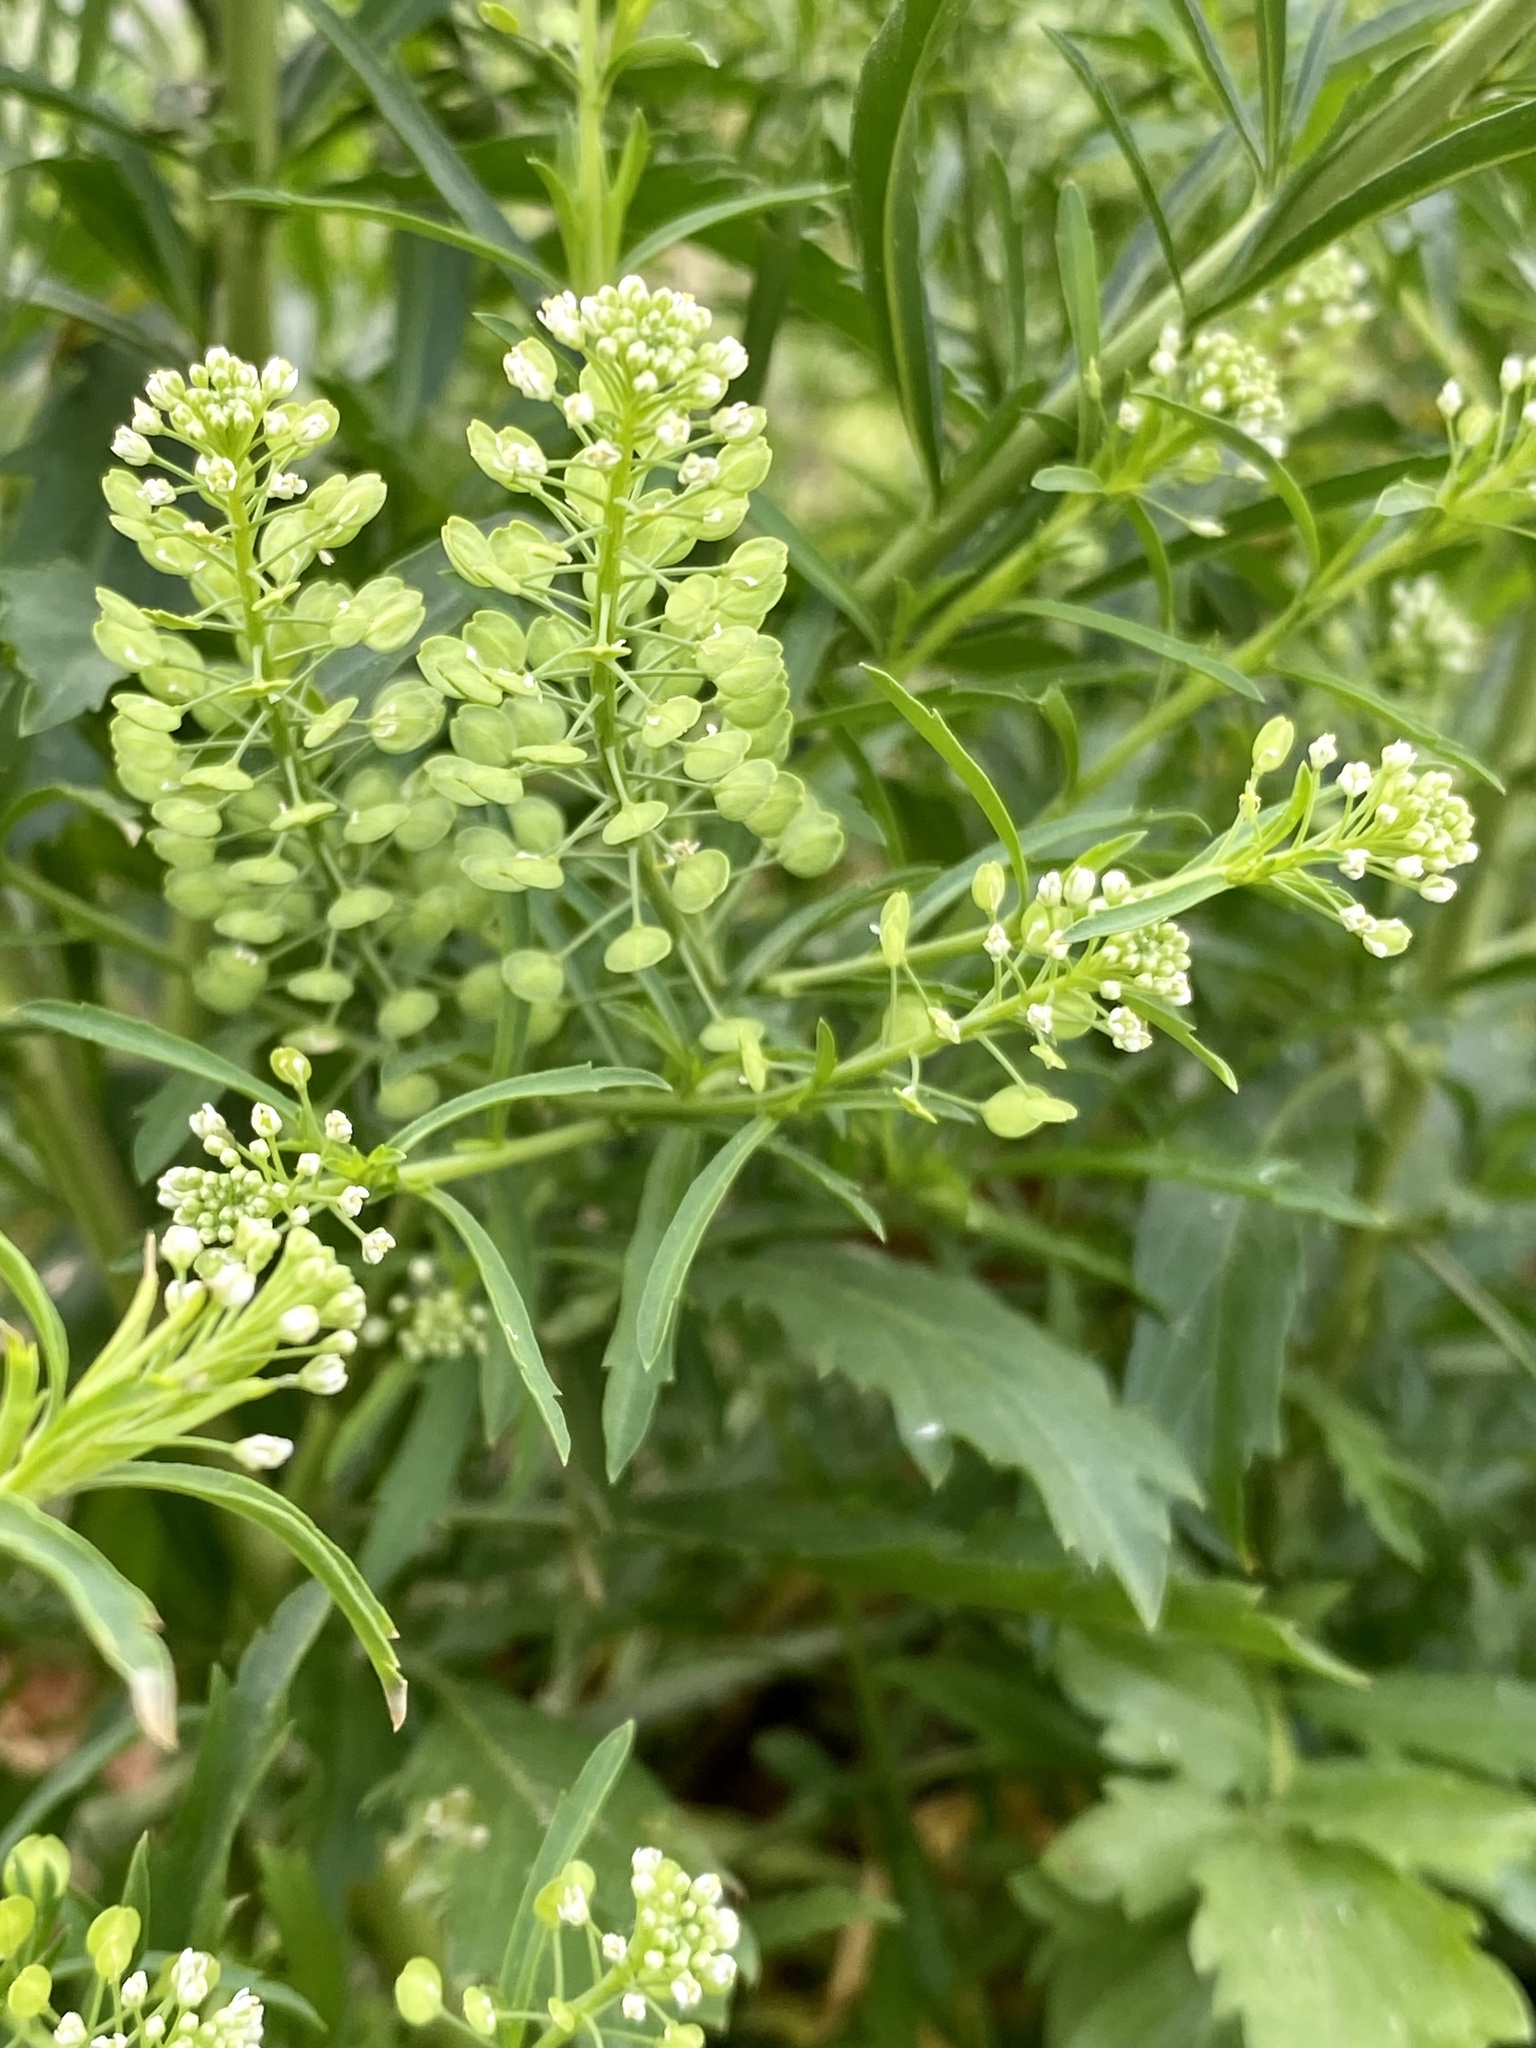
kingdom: Plantae
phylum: Tracheophyta
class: Magnoliopsida
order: Brassicales
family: Brassicaceae
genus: Lepidium
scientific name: Lepidium virginicum
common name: Least pepperwort
